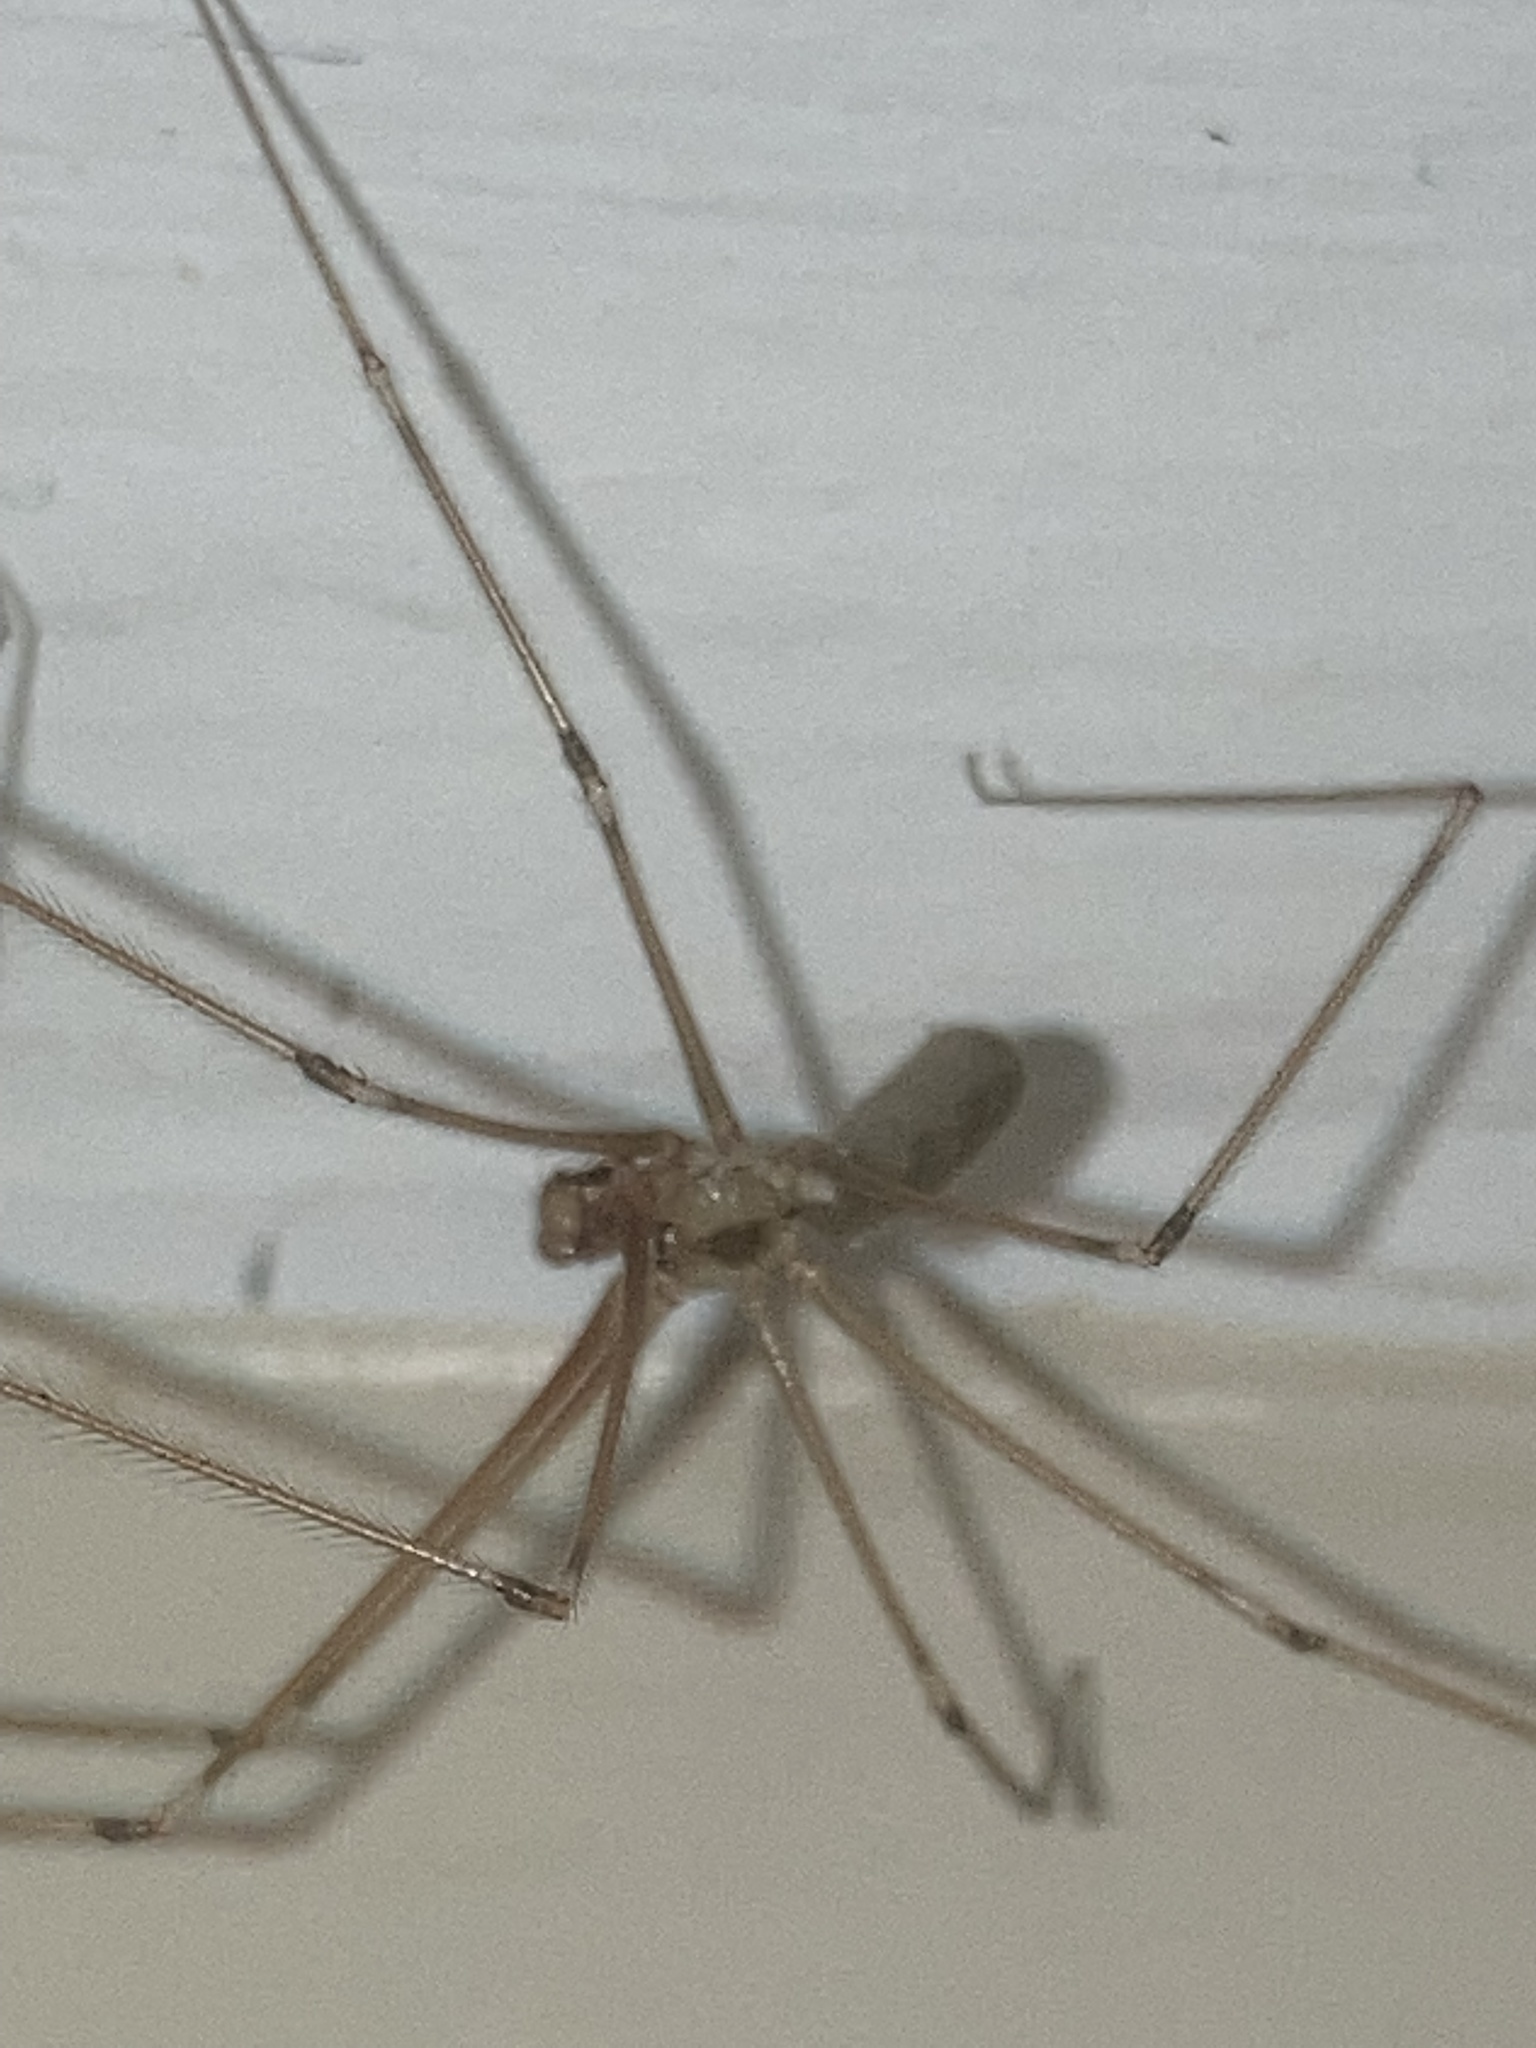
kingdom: Animalia
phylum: Arthropoda
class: Arachnida
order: Araneae
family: Pholcidae
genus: Pholcus
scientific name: Pholcus phalangioides
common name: Longbodied cellar spider
